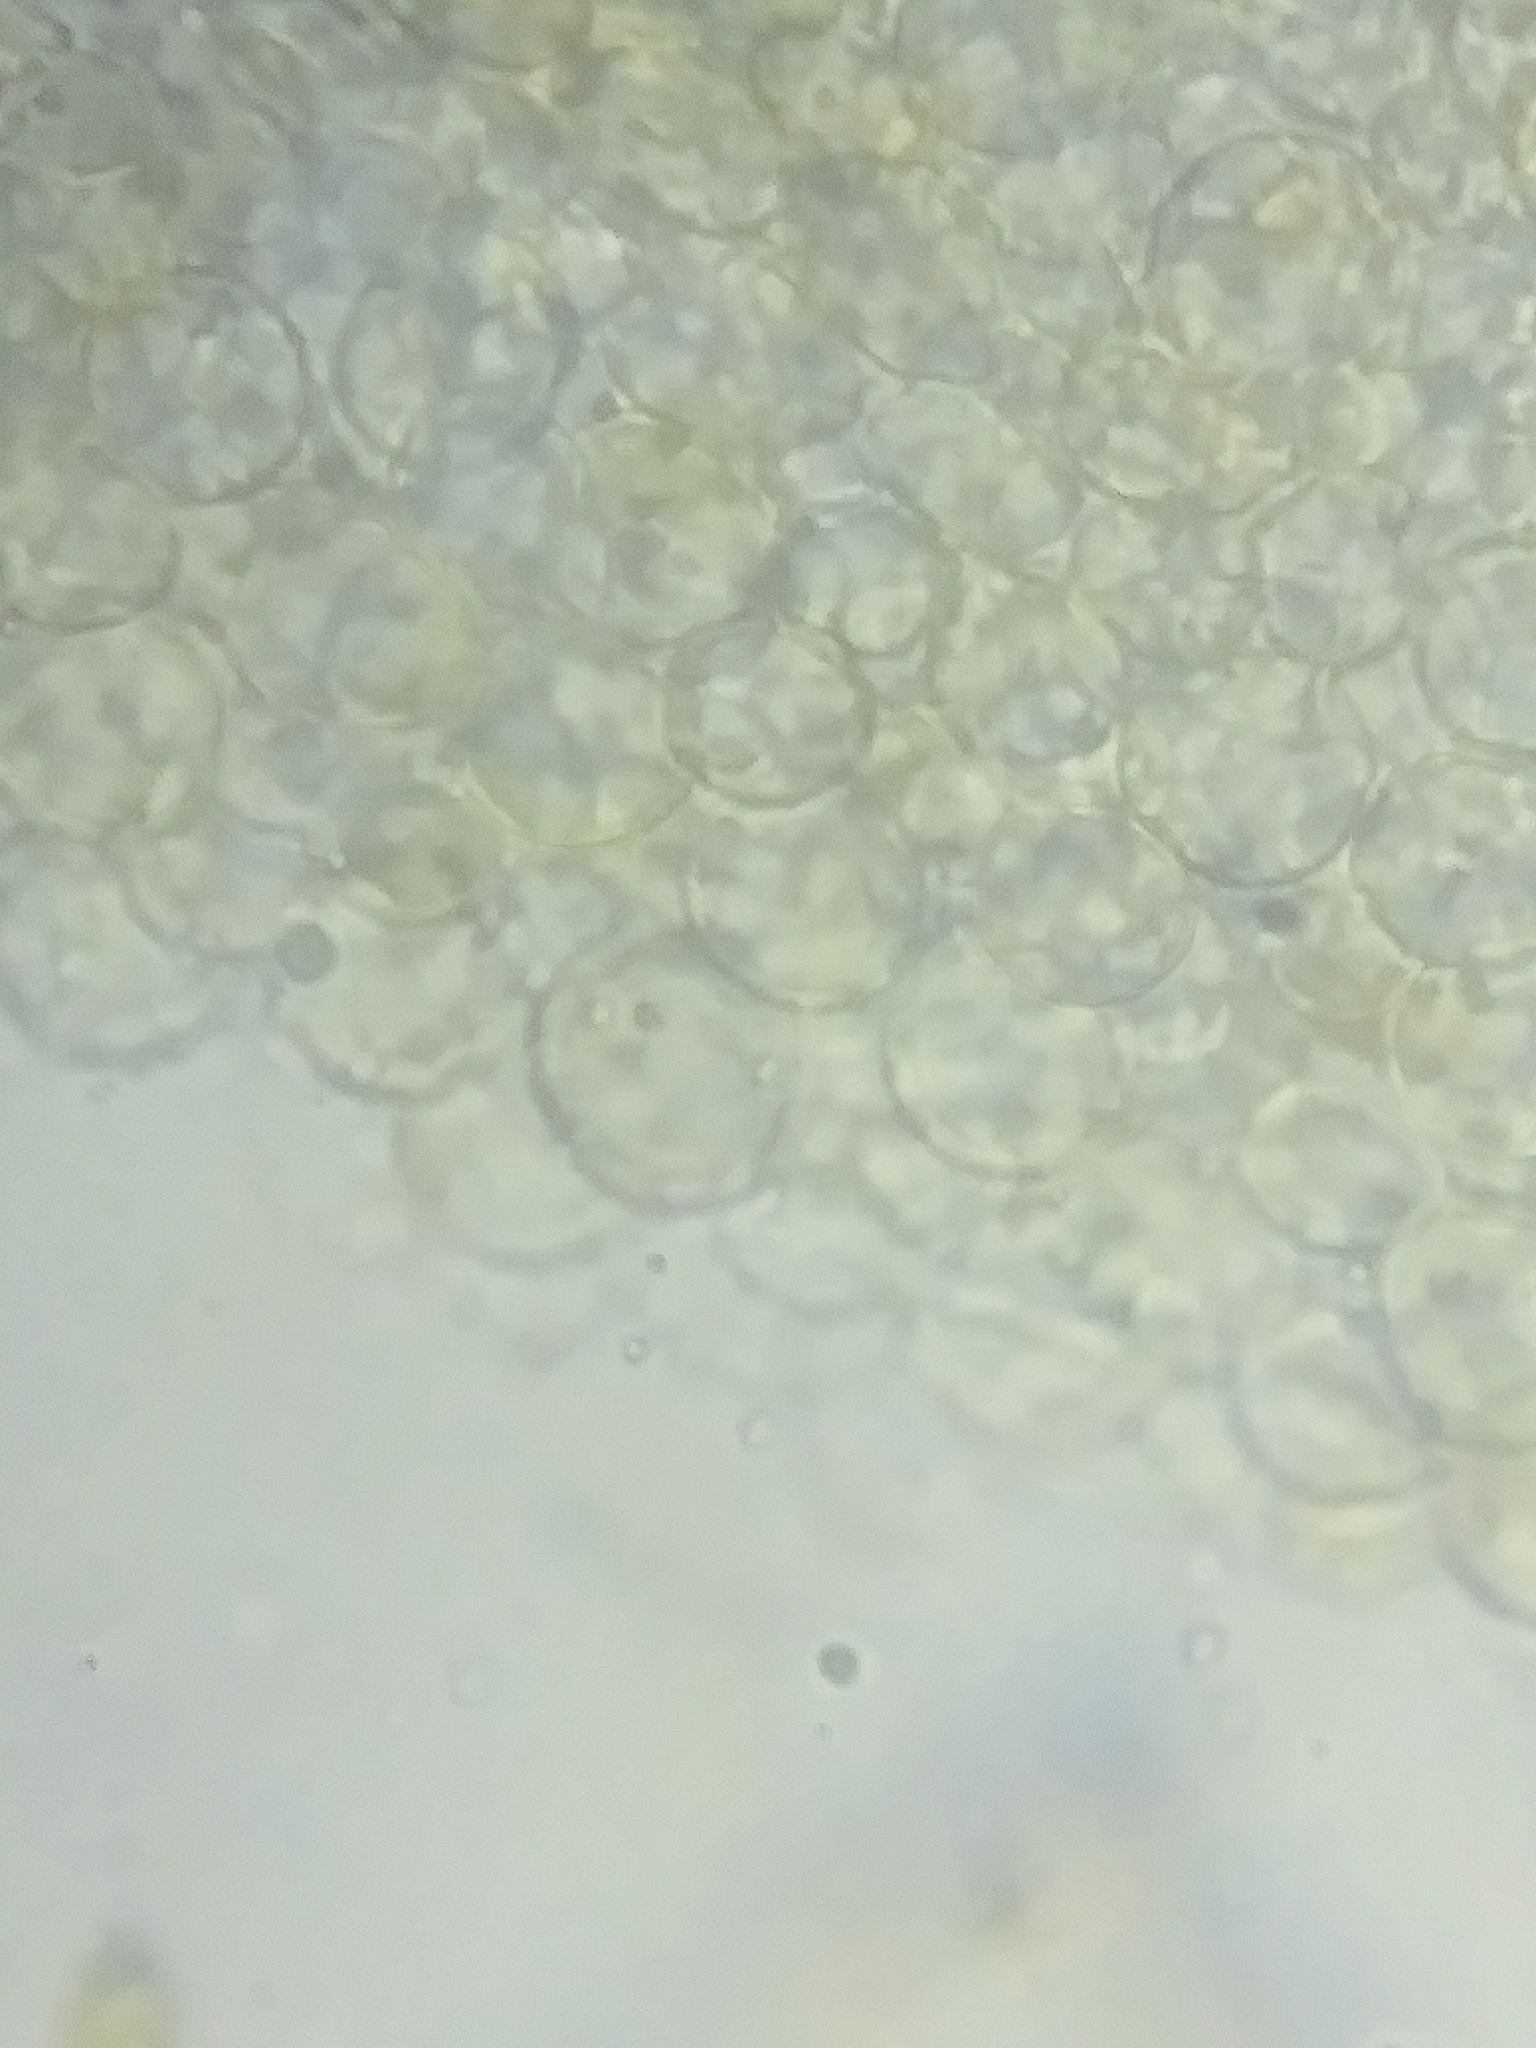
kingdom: Fungi
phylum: Basidiomycota
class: Agaricomycetes
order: Agaricales
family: Bolbitiaceae
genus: Bolbitius
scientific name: Bolbitius coprophilus
